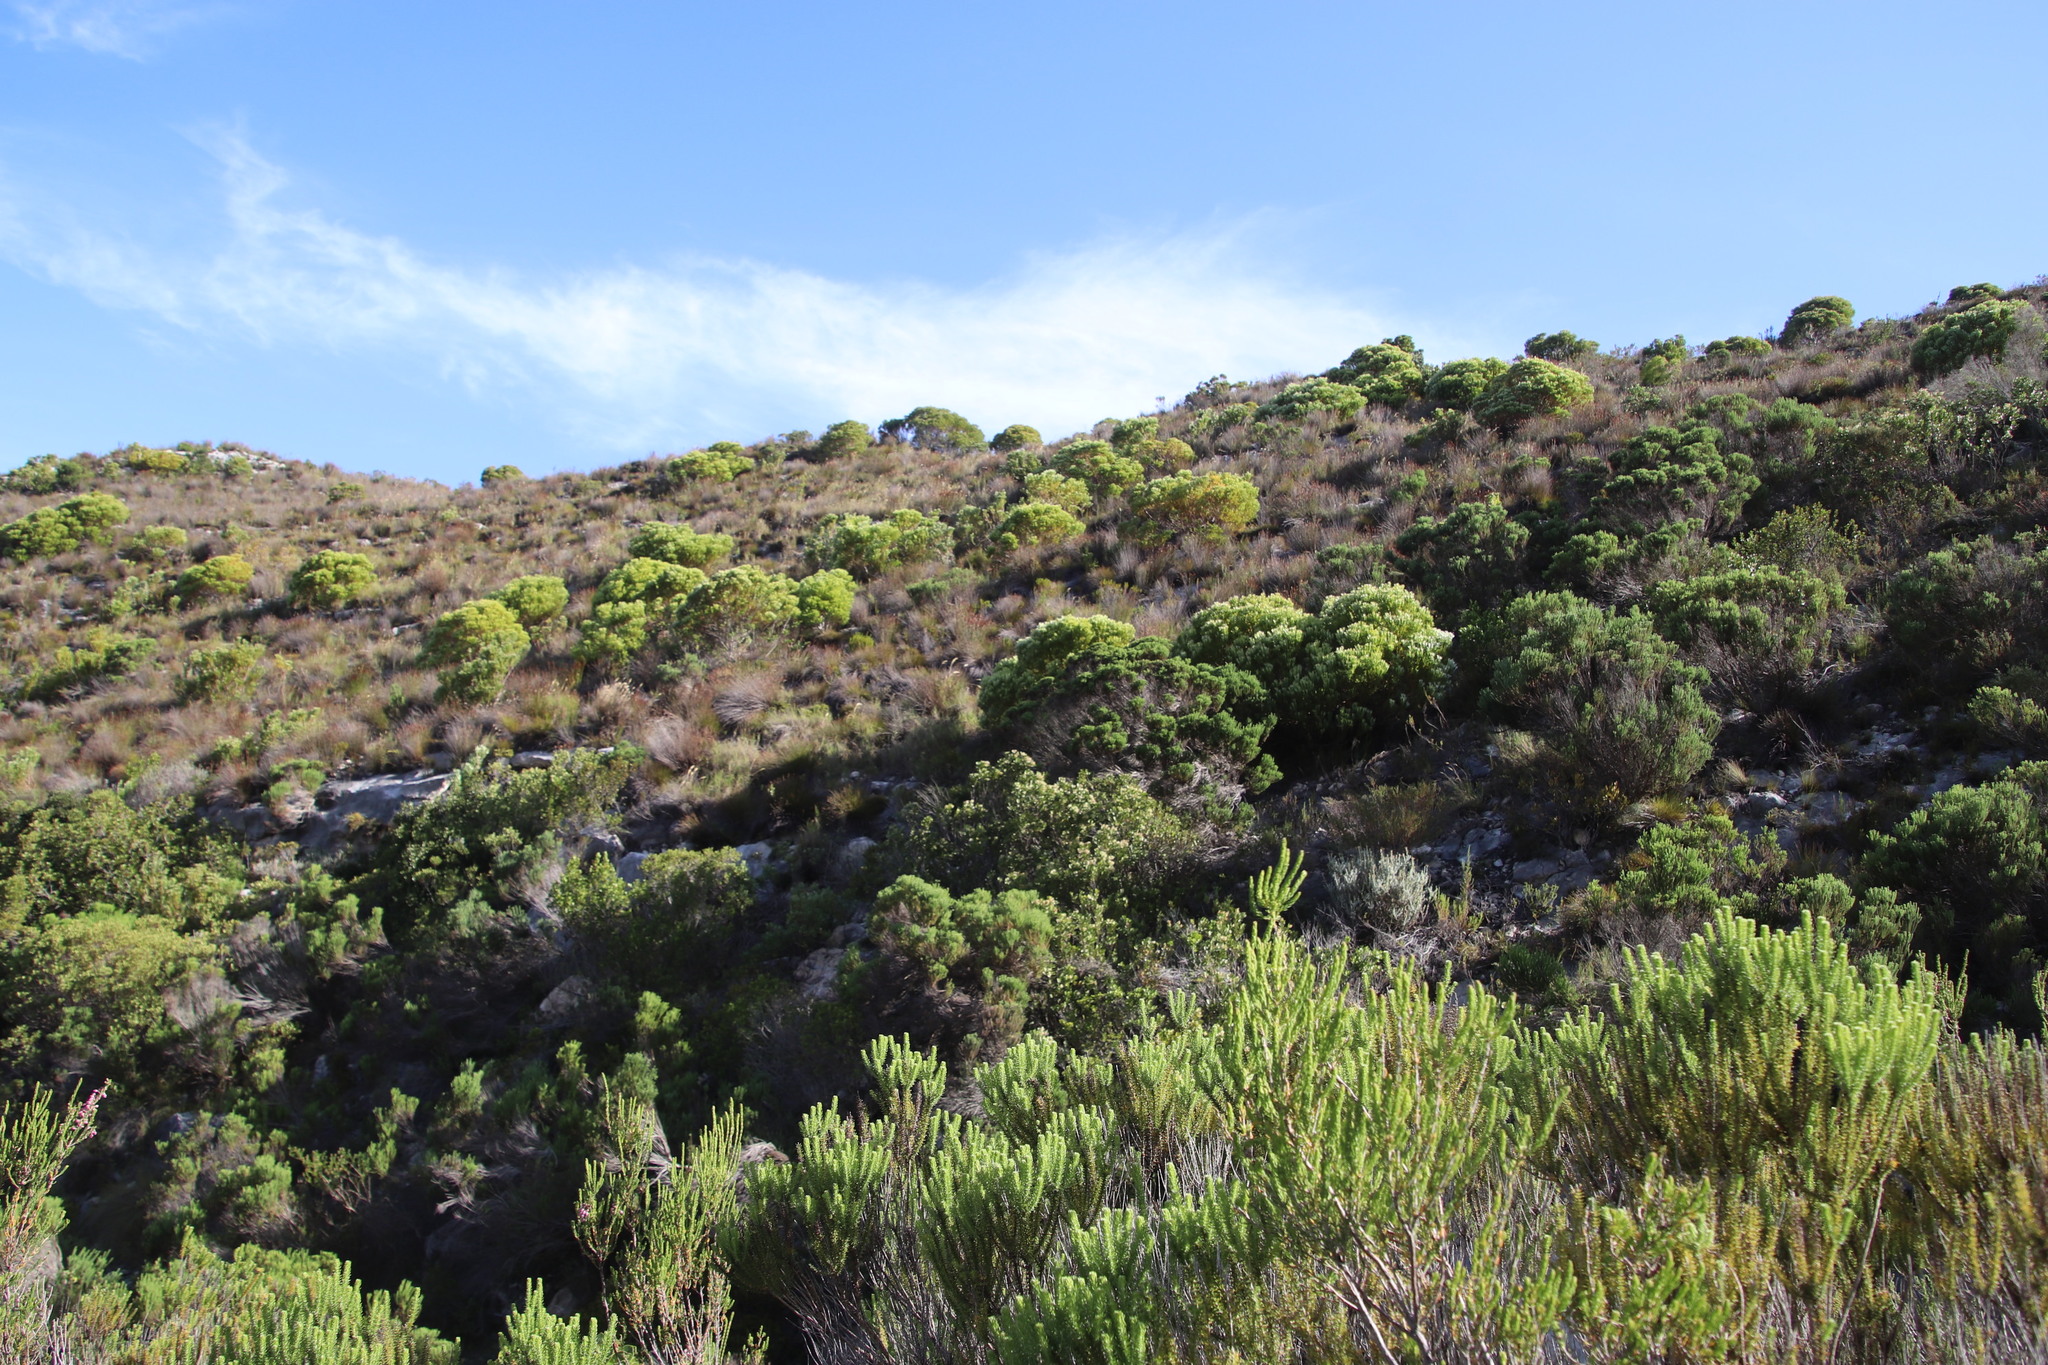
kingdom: Plantae
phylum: Tracheophyta
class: Magnoliopsida
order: Proteales
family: Proteaceae
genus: Leucadendron
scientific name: Leucadendron meridianum
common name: Limestone conebush
